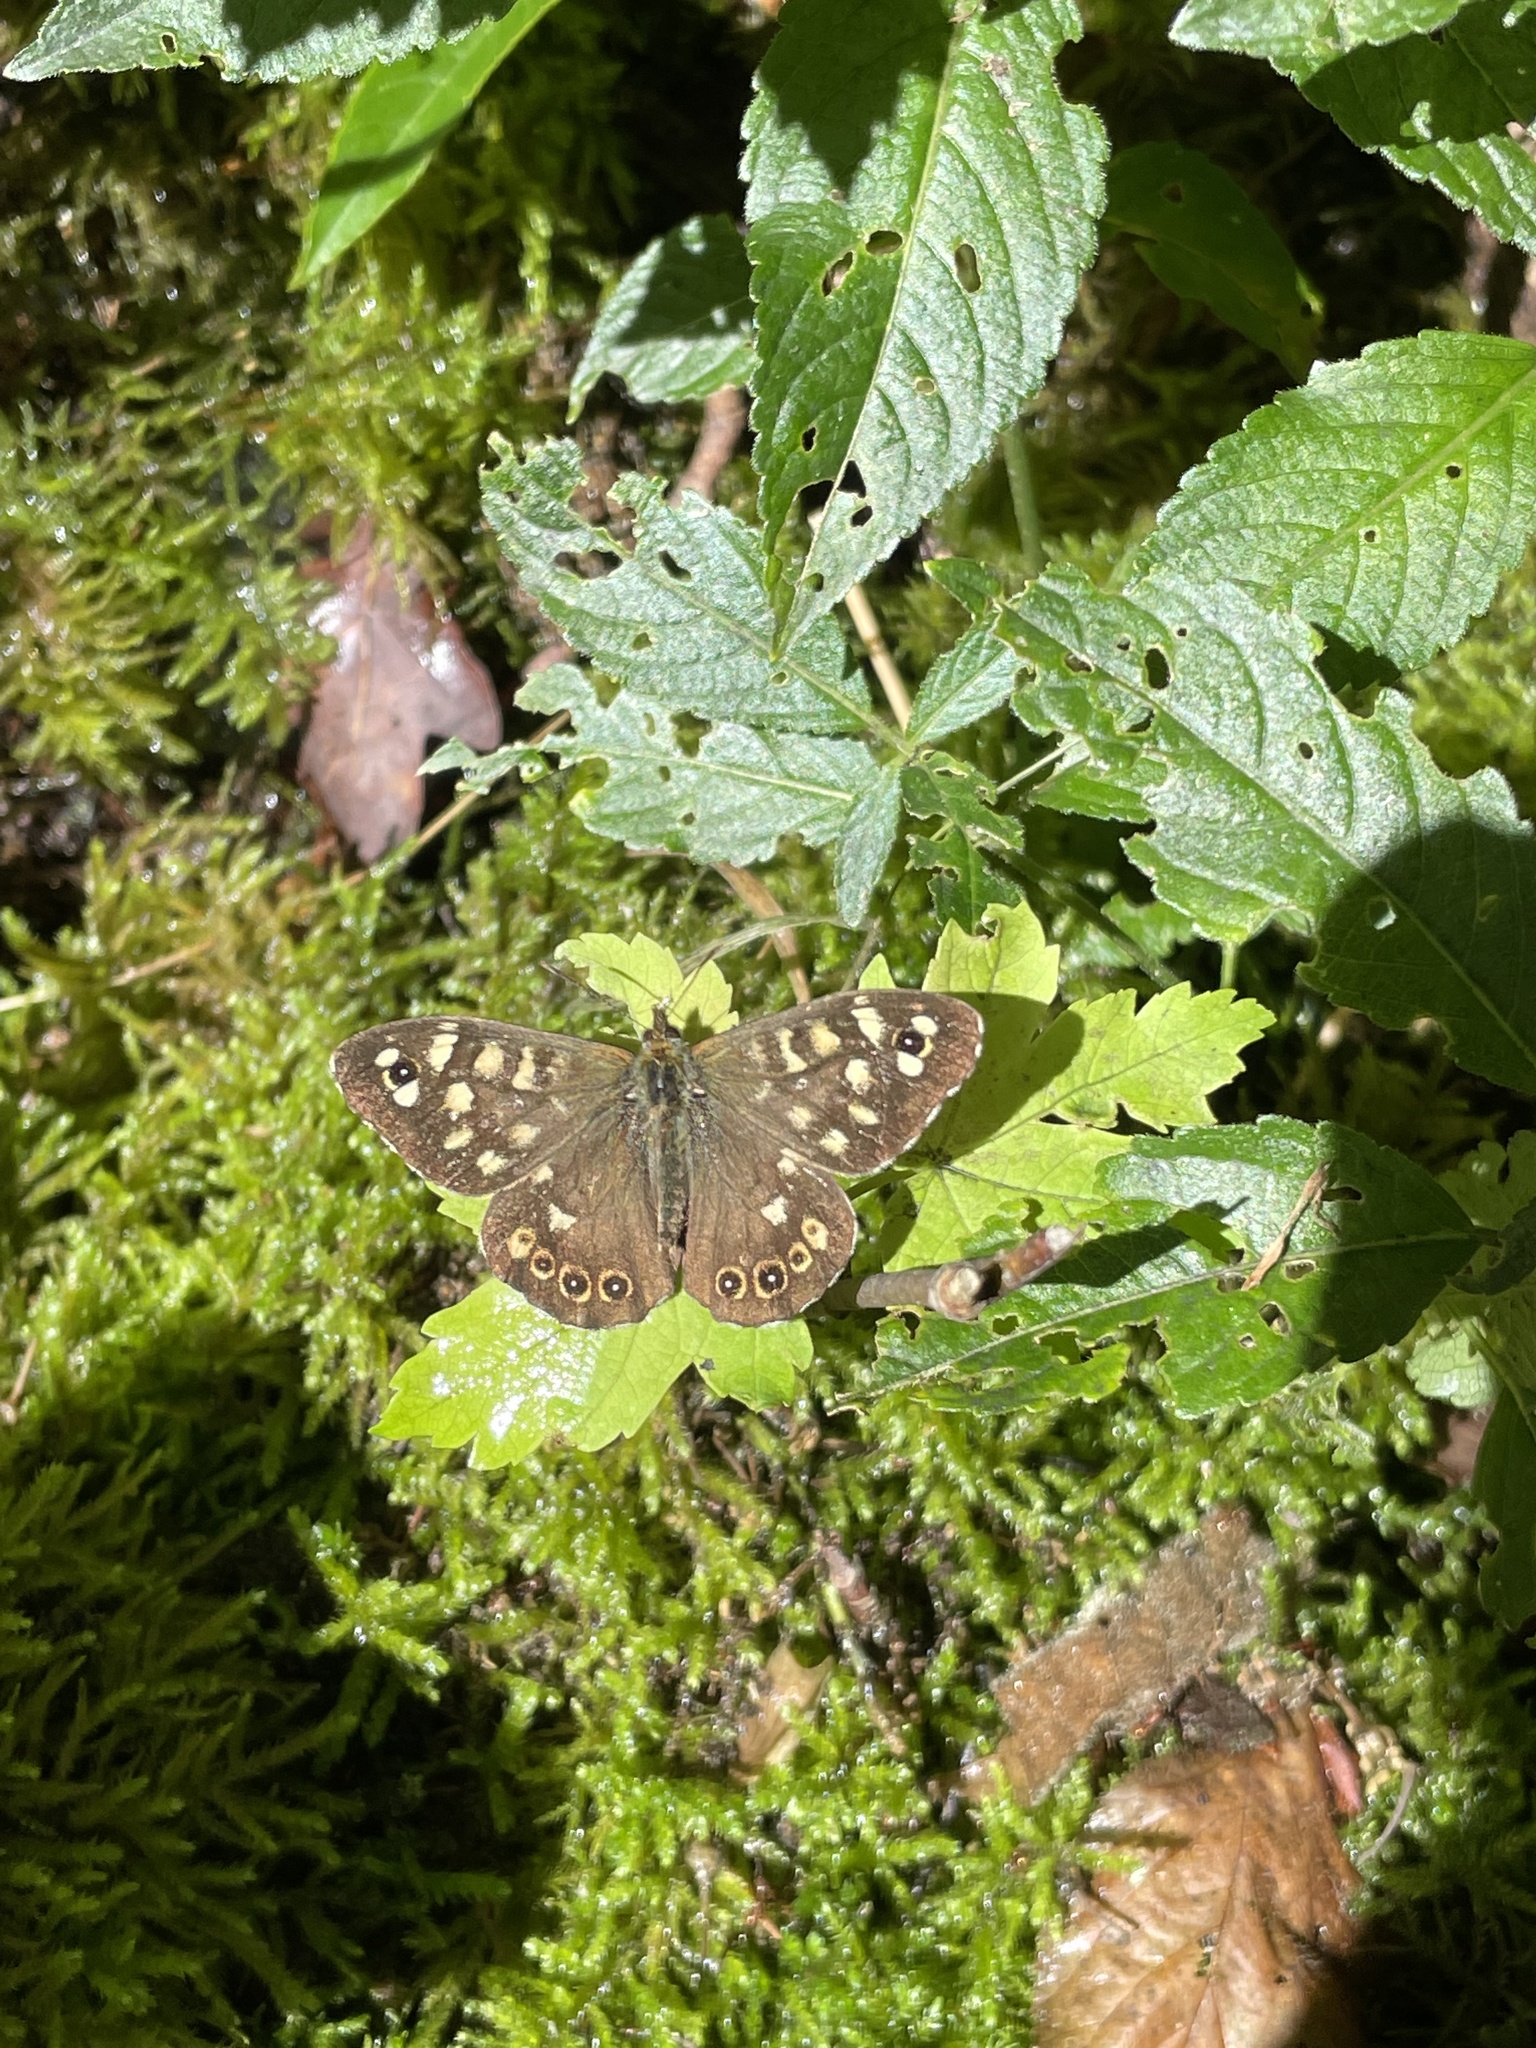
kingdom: Animalia
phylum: Arthropoda
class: Insecta
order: Lepidoptera
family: Nymphalidae
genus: Pararge
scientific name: Pararge aegeria
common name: Speckled wood
